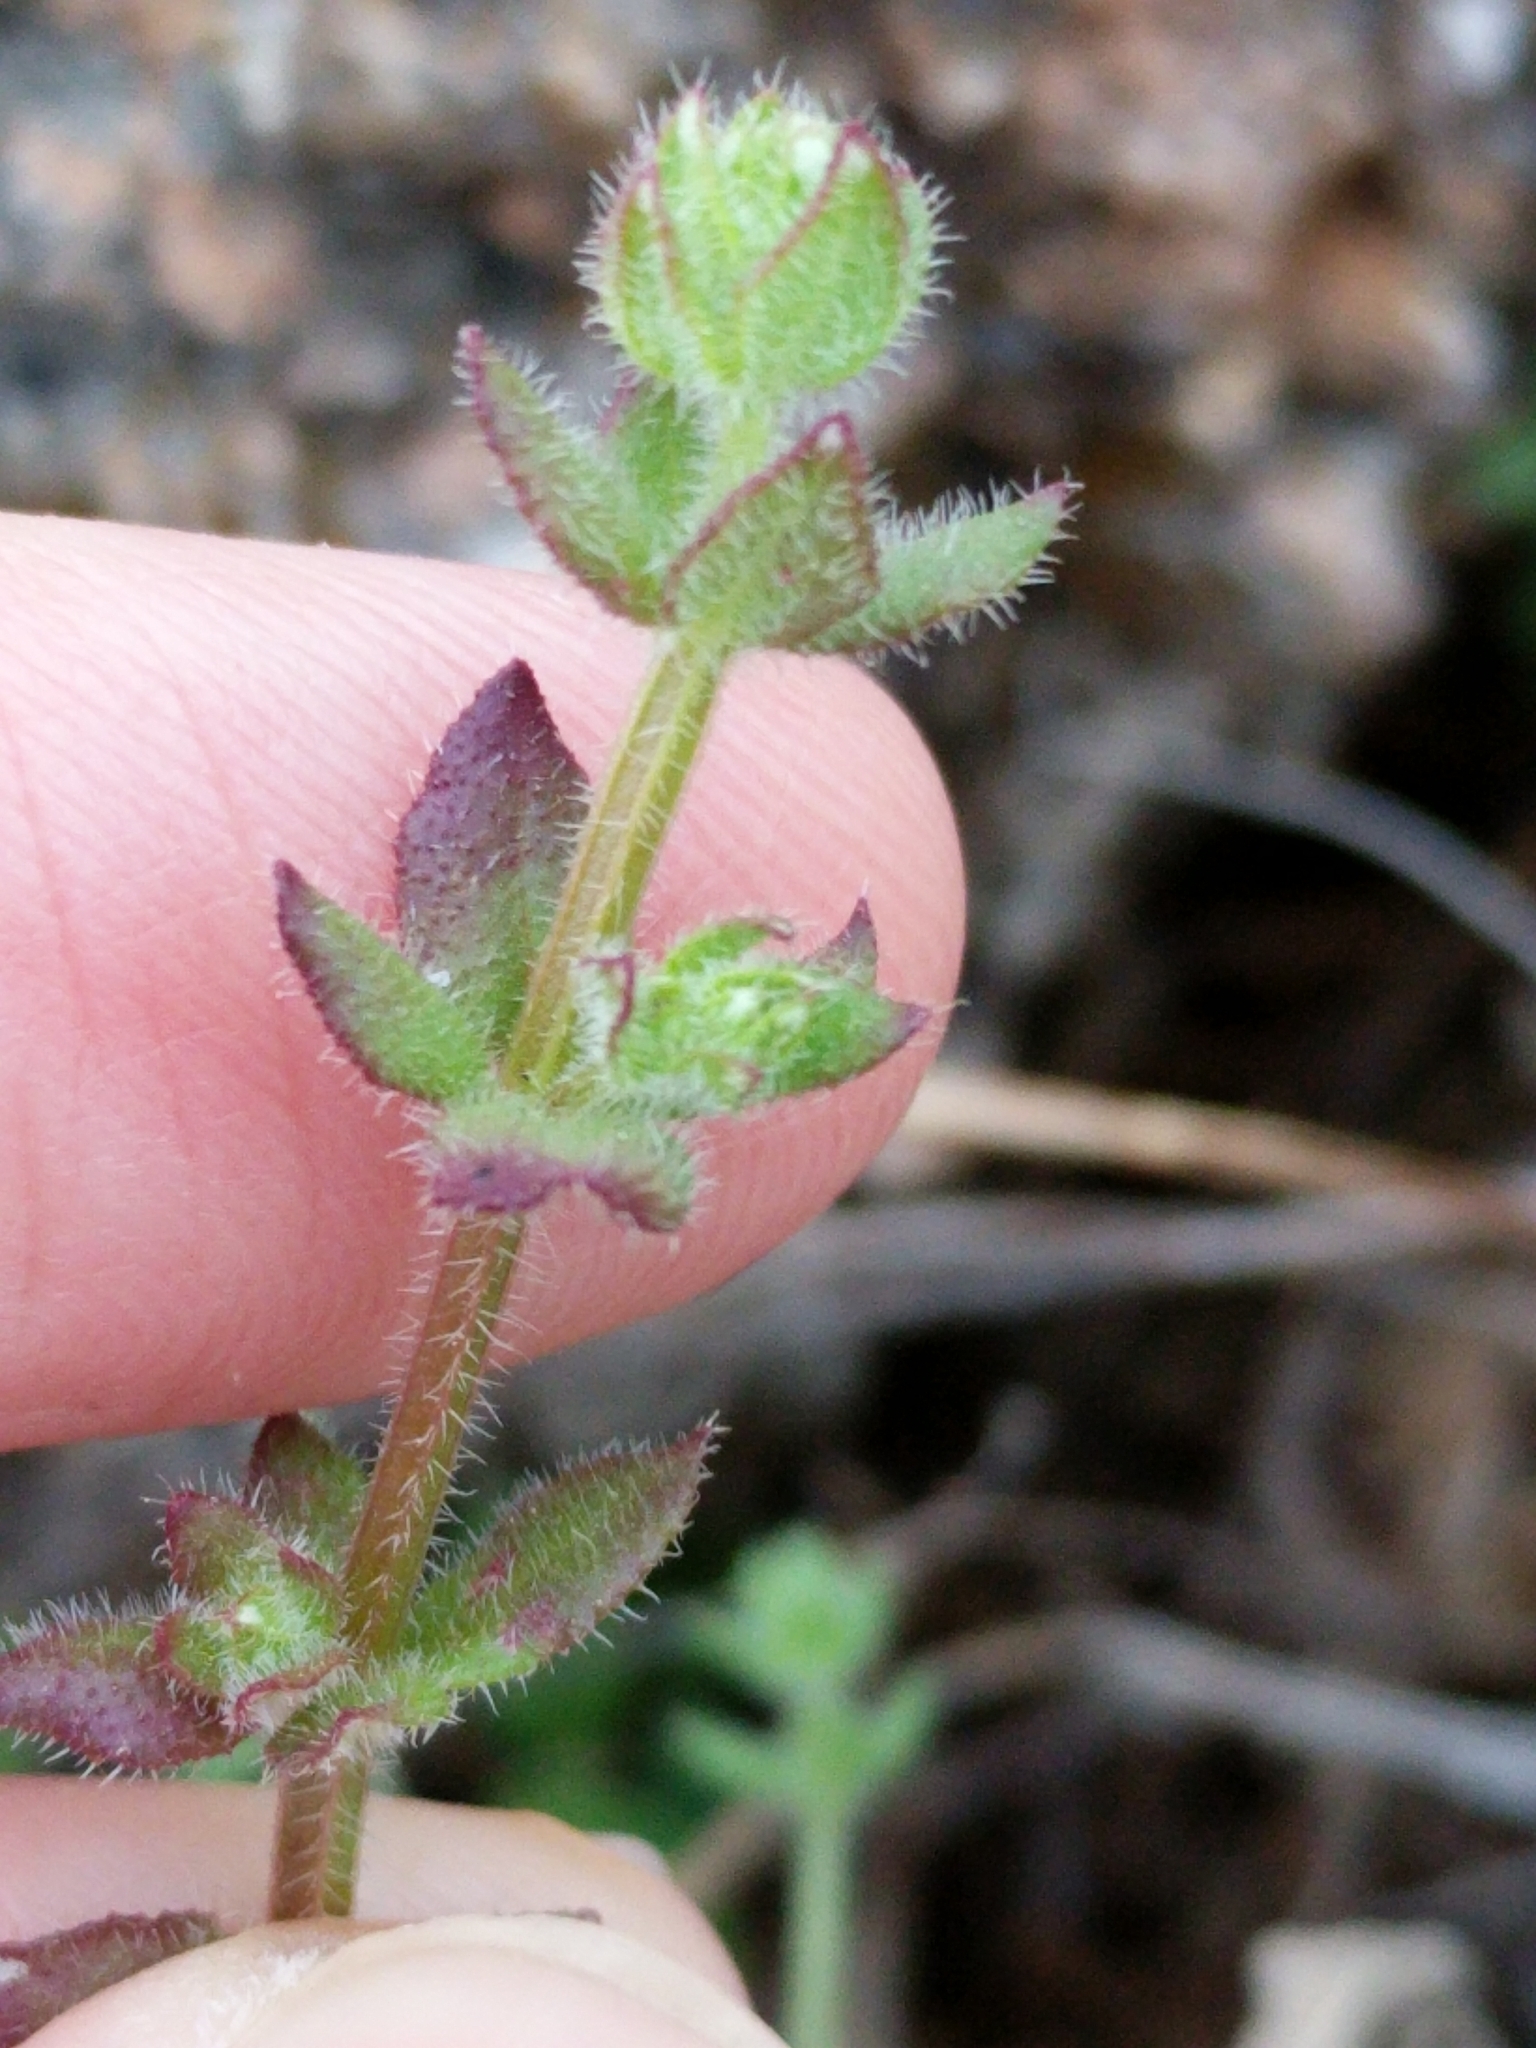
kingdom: Plantae
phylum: Tracheophyta
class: Magnoliopsida
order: Gentianales
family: Rubiaceae
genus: Galium
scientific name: Galium texense
